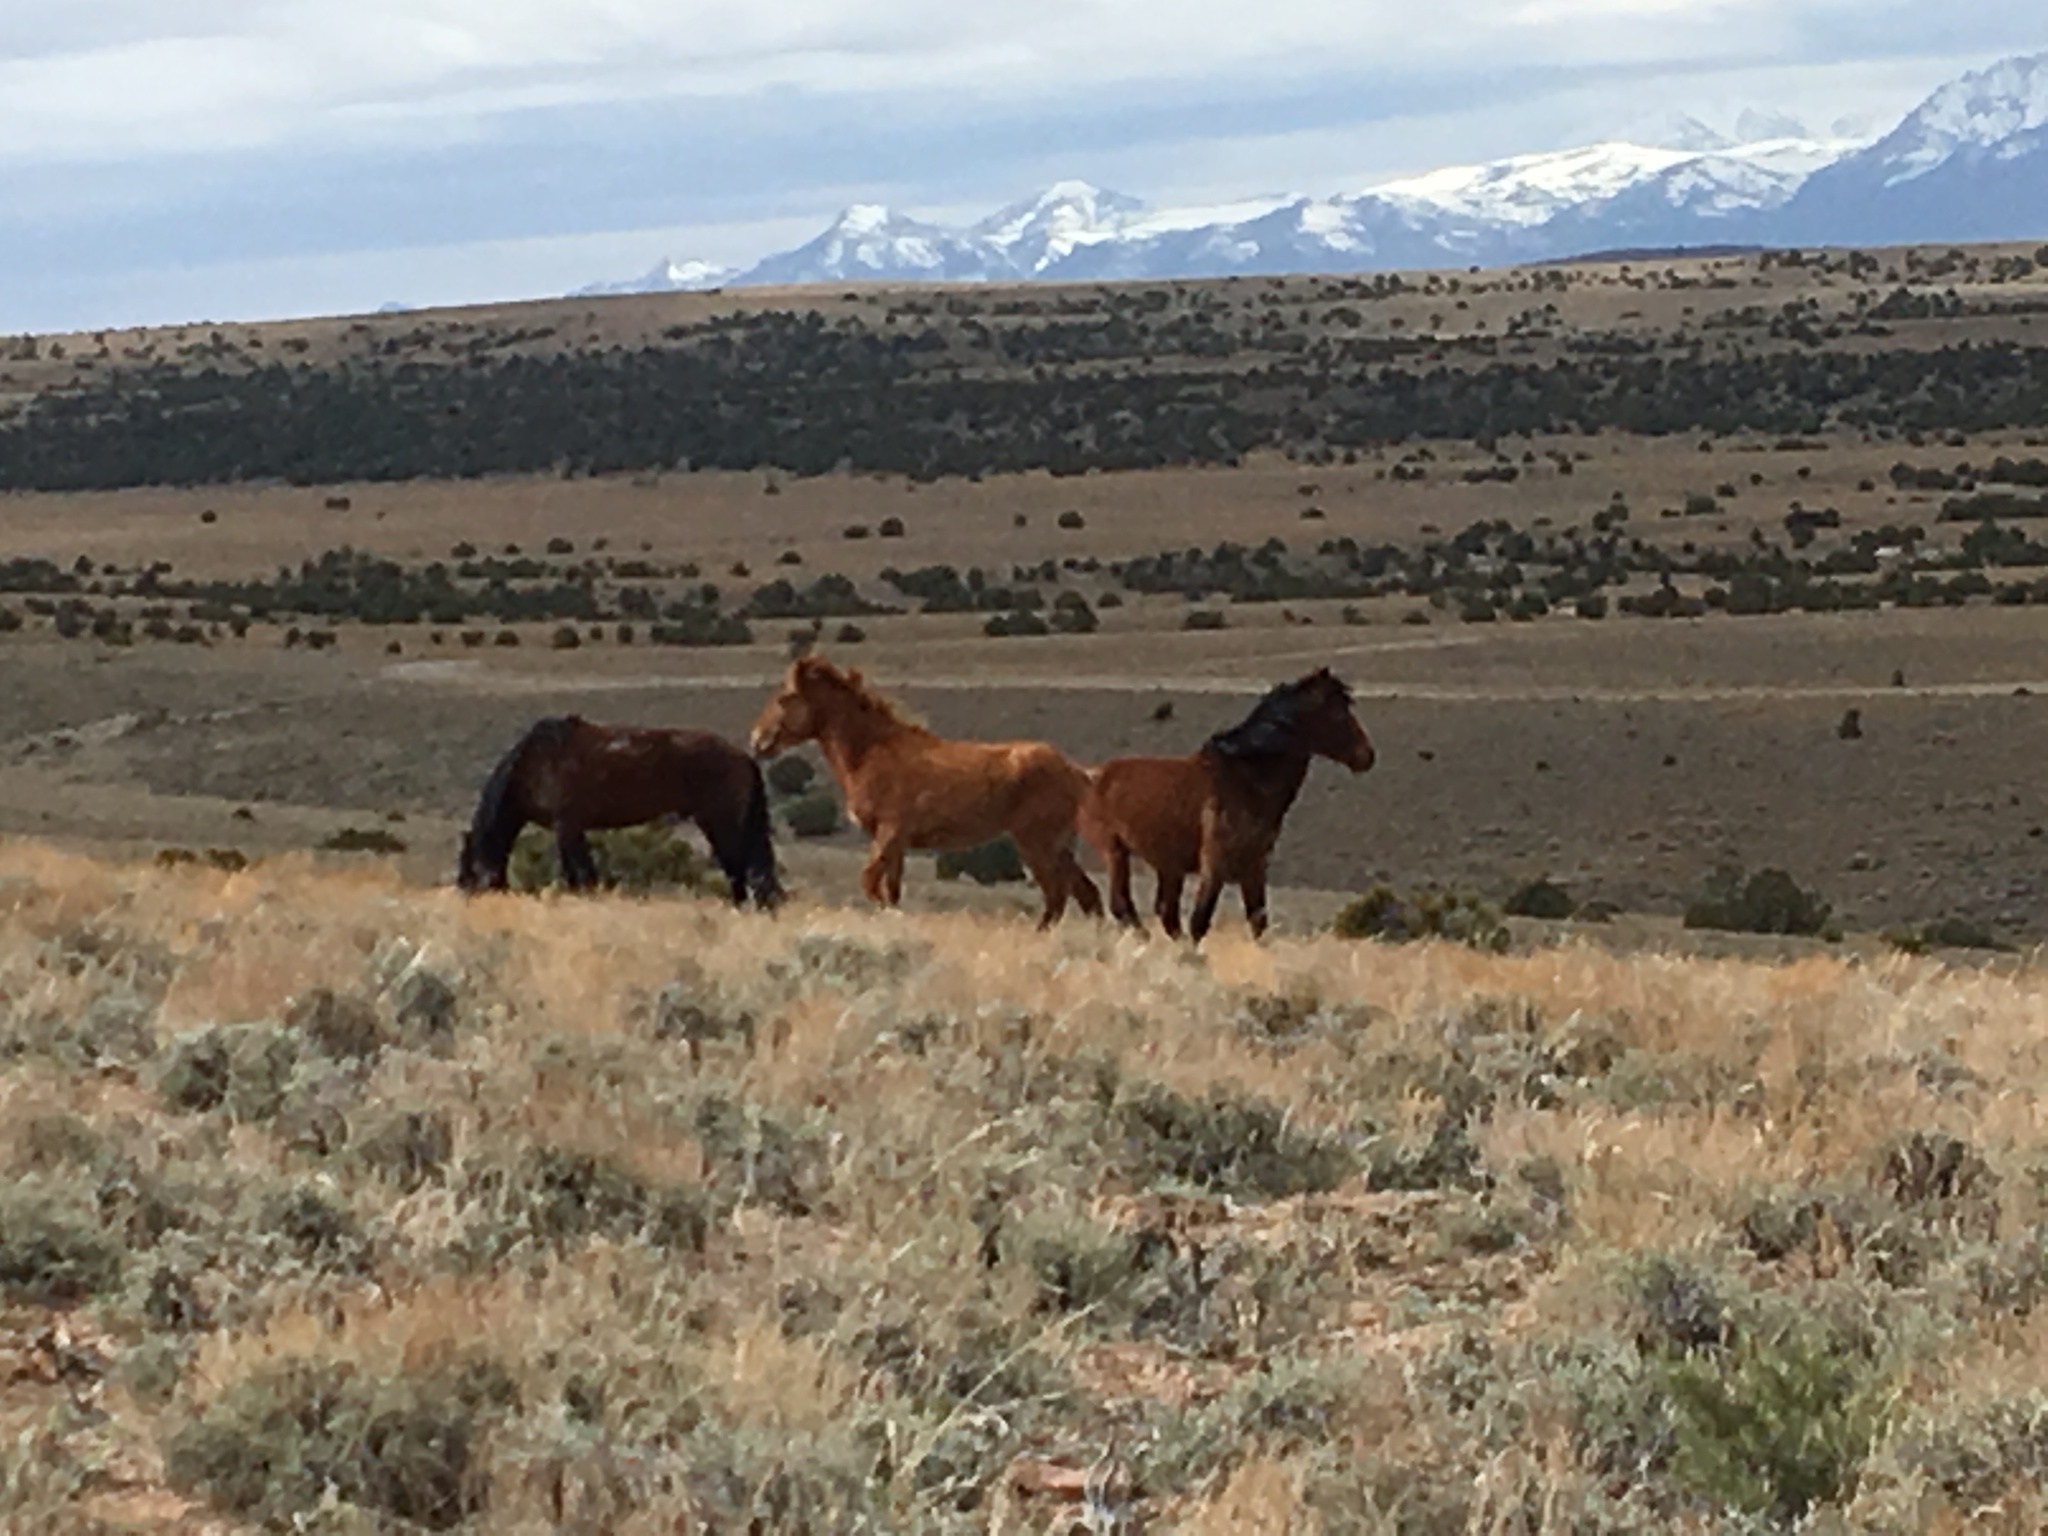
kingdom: Animalia
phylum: Chordata
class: Mammalia
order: Perissodactyla
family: Equidae
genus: Equus
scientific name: Equus caballus
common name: Horse
